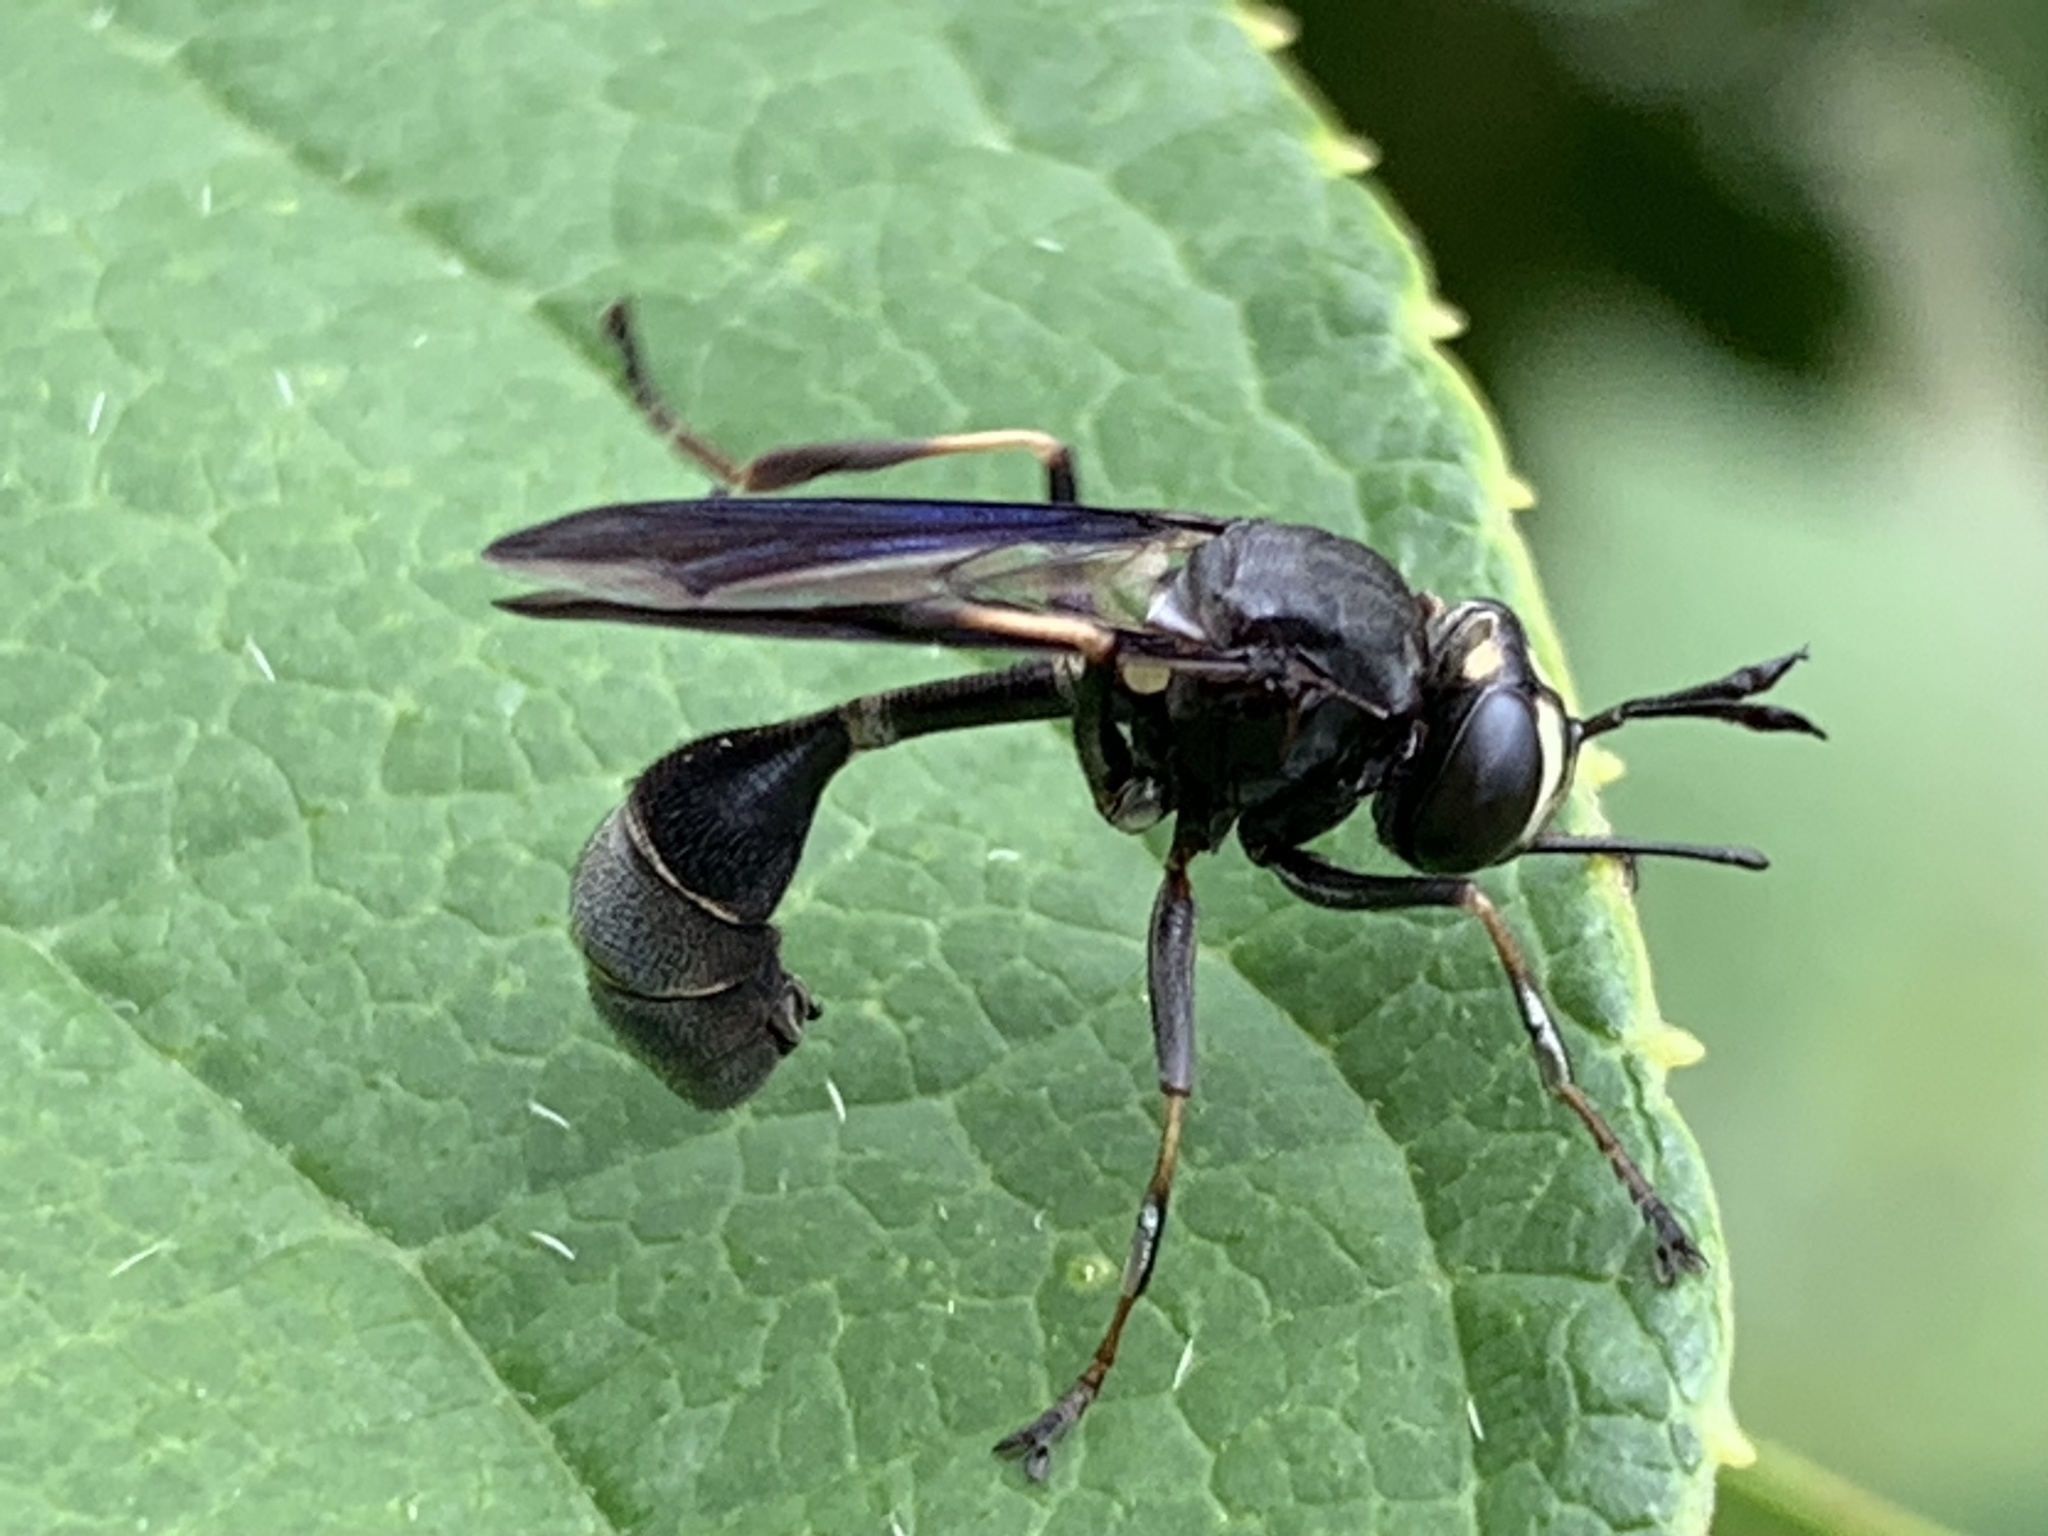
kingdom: Animalia
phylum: Arthropoda
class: Insecta
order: Diptera
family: Conopidae
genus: Physocephala
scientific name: Physocephala tibialis
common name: Common eastern physocephala
